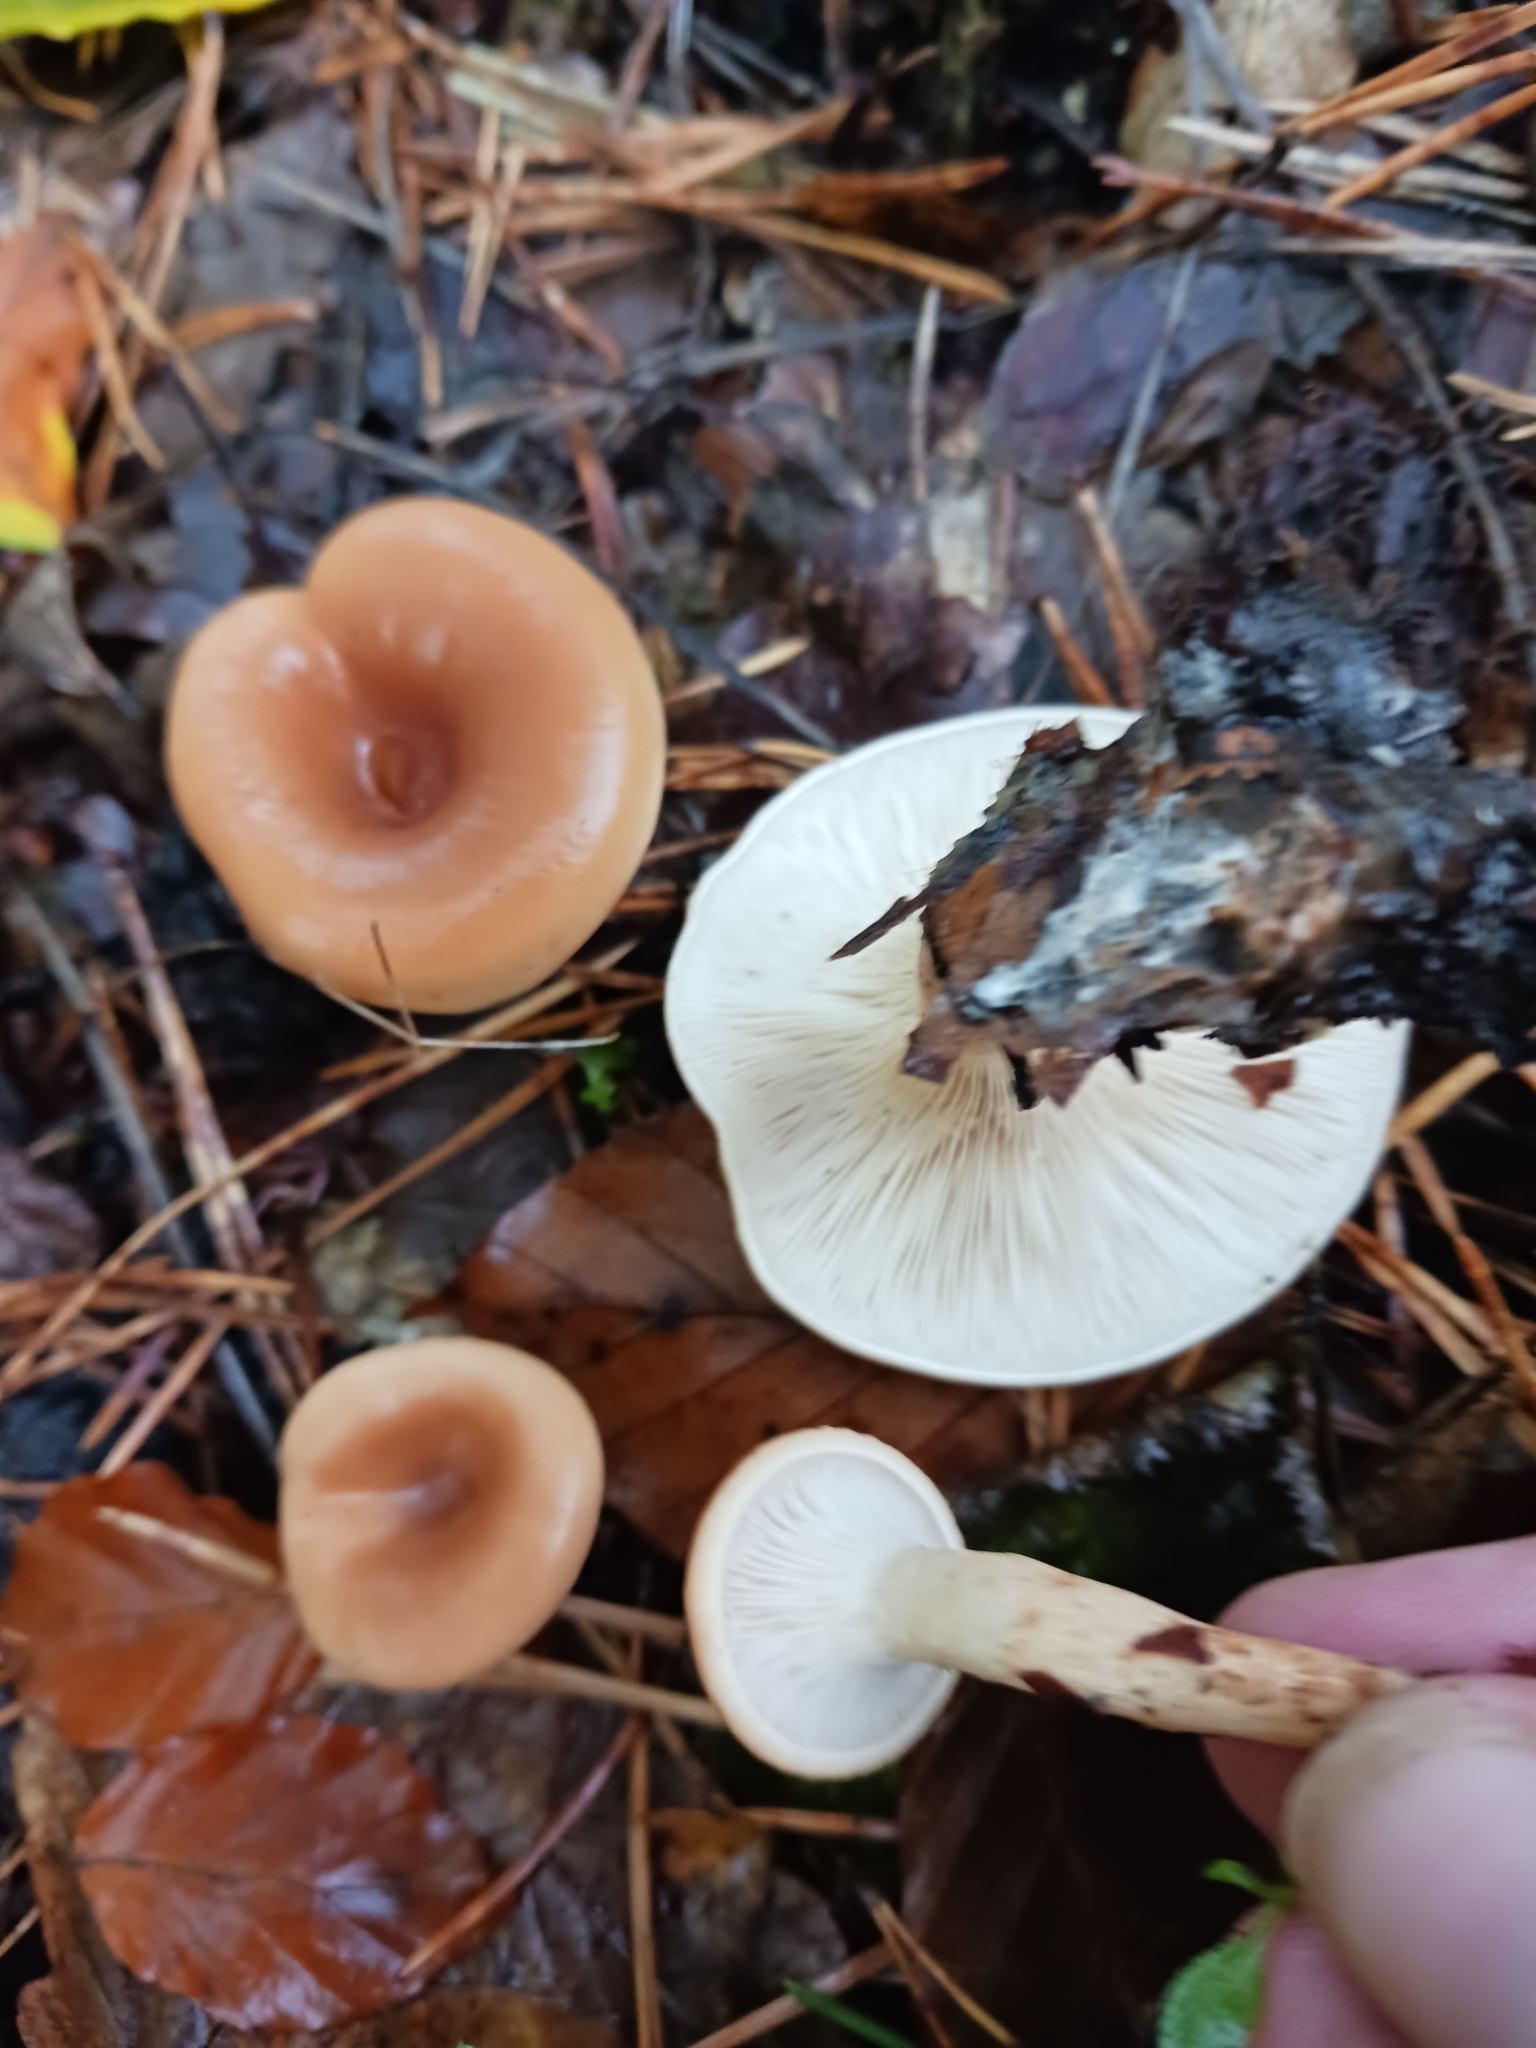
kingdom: Fungi
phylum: Basidiomycota
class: Agaricomycetes
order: Agaricales
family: Tricholomataceae
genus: Paralepista
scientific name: Paralepista flaccida
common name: Tawny funnel cap
